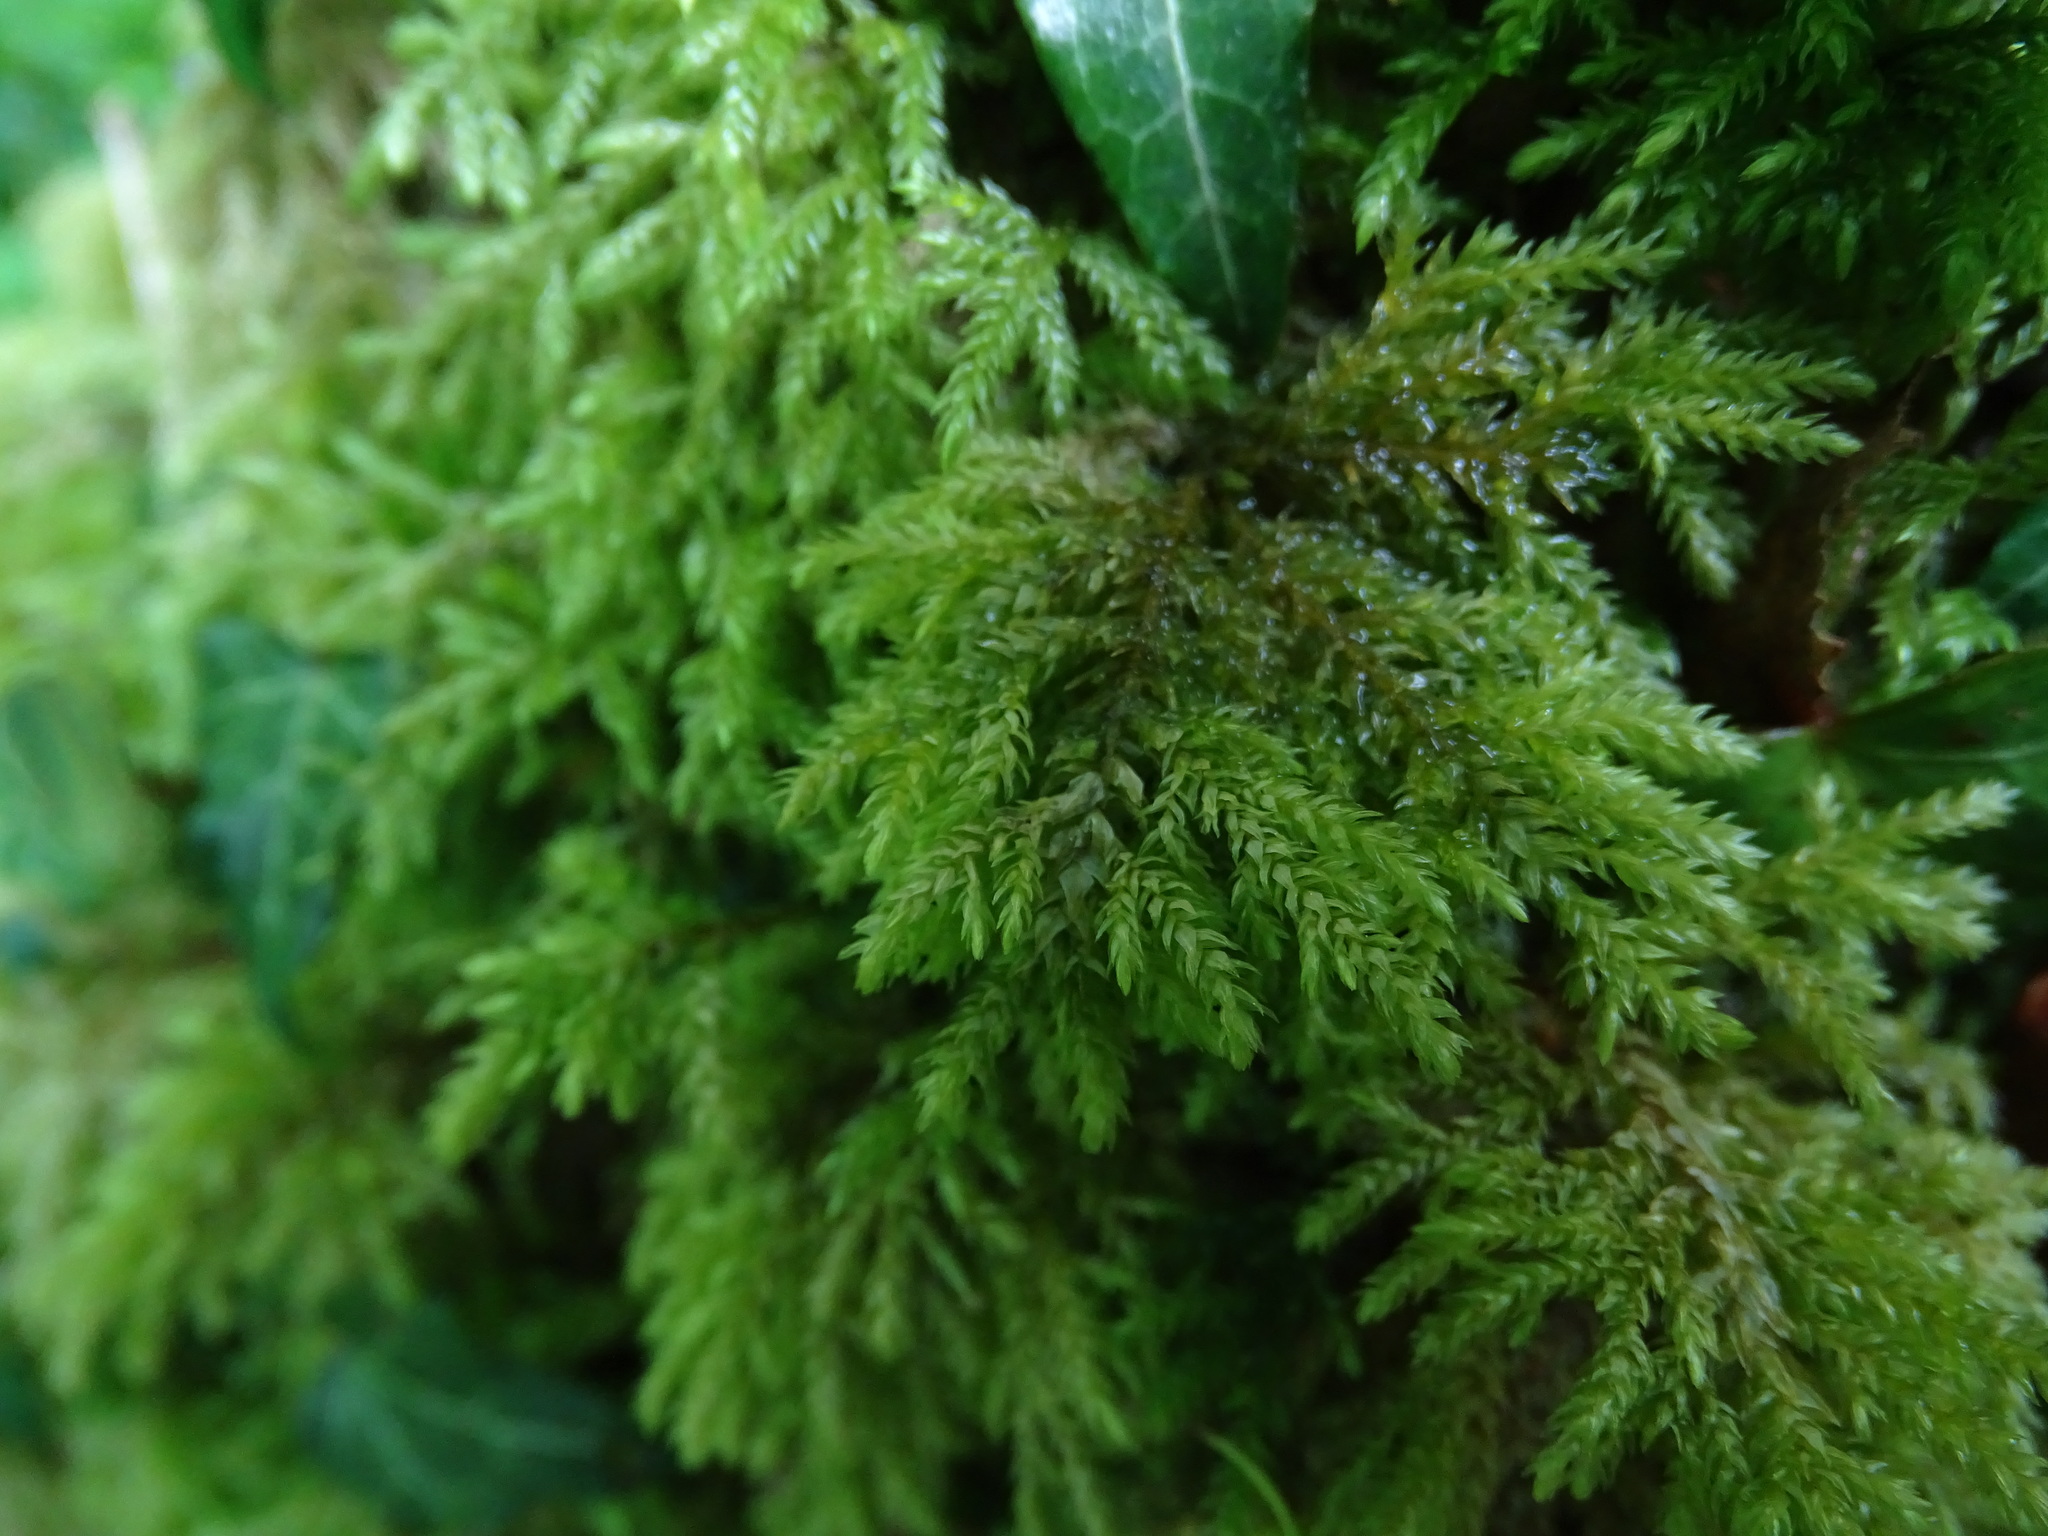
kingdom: Plantae
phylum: Bryophyta
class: Bryopsida
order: Hypnales
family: Neckeraceae
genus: Thamnobryum
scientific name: Thamnobryum alopecurum
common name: Fox-tail feather-moss
